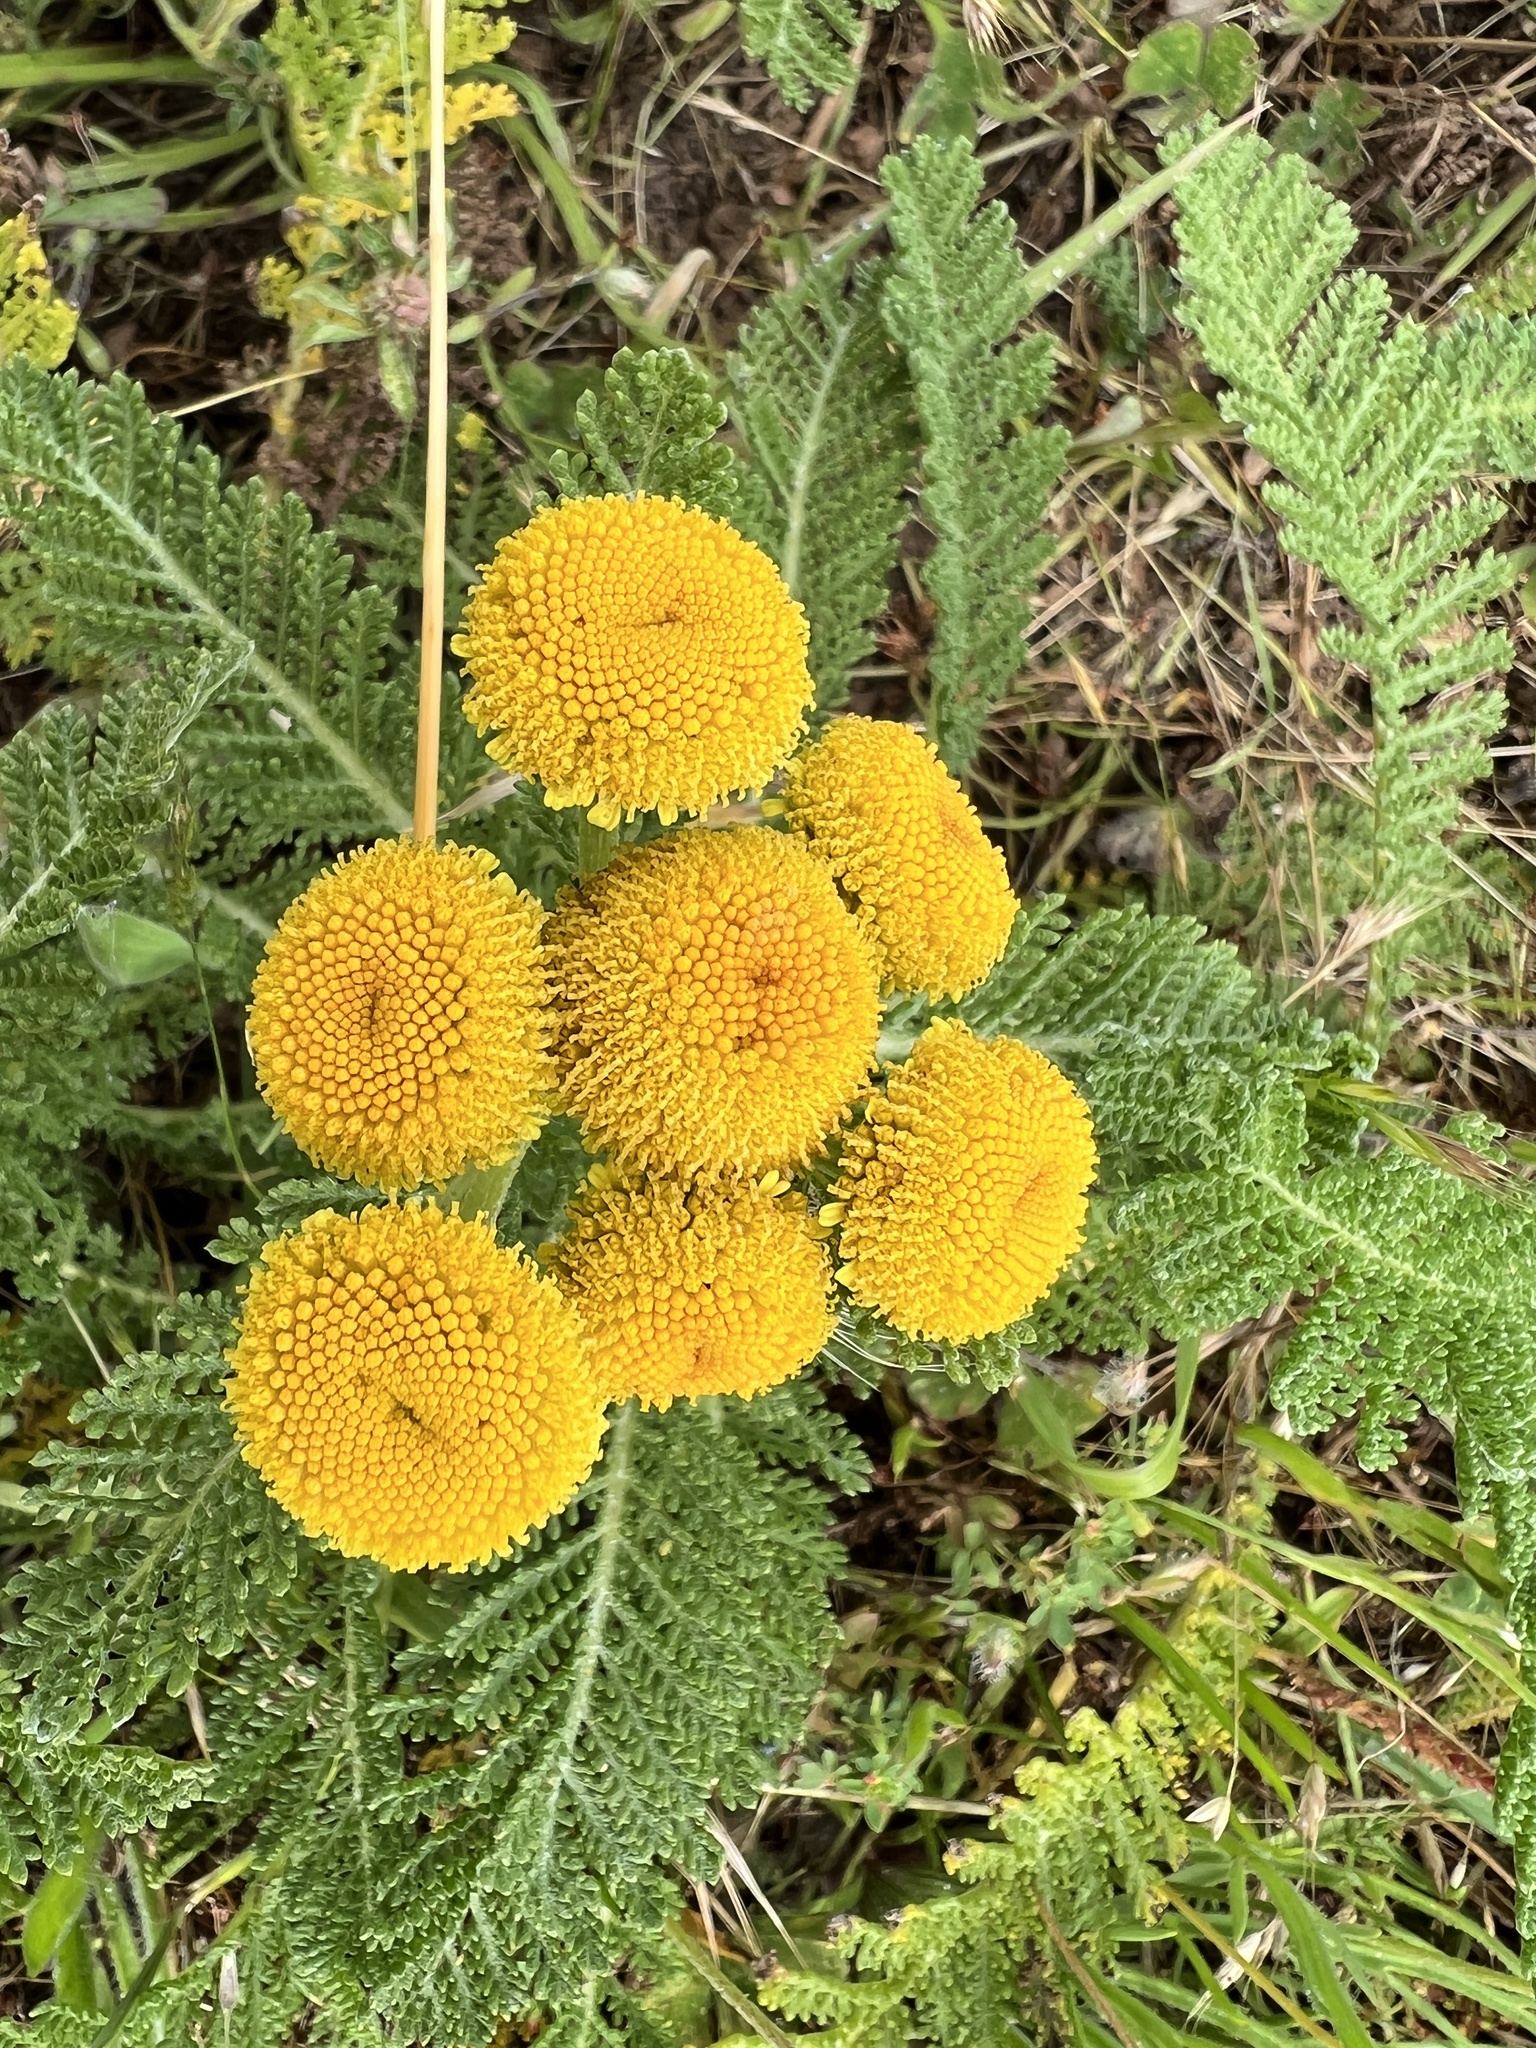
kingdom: Plantae
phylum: Tracheophyta
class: Magnoliopsida
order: Asterales
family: Asteraceae
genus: Tanacetum
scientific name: Tanacetum bipinnatum
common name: Dwarf tansy
